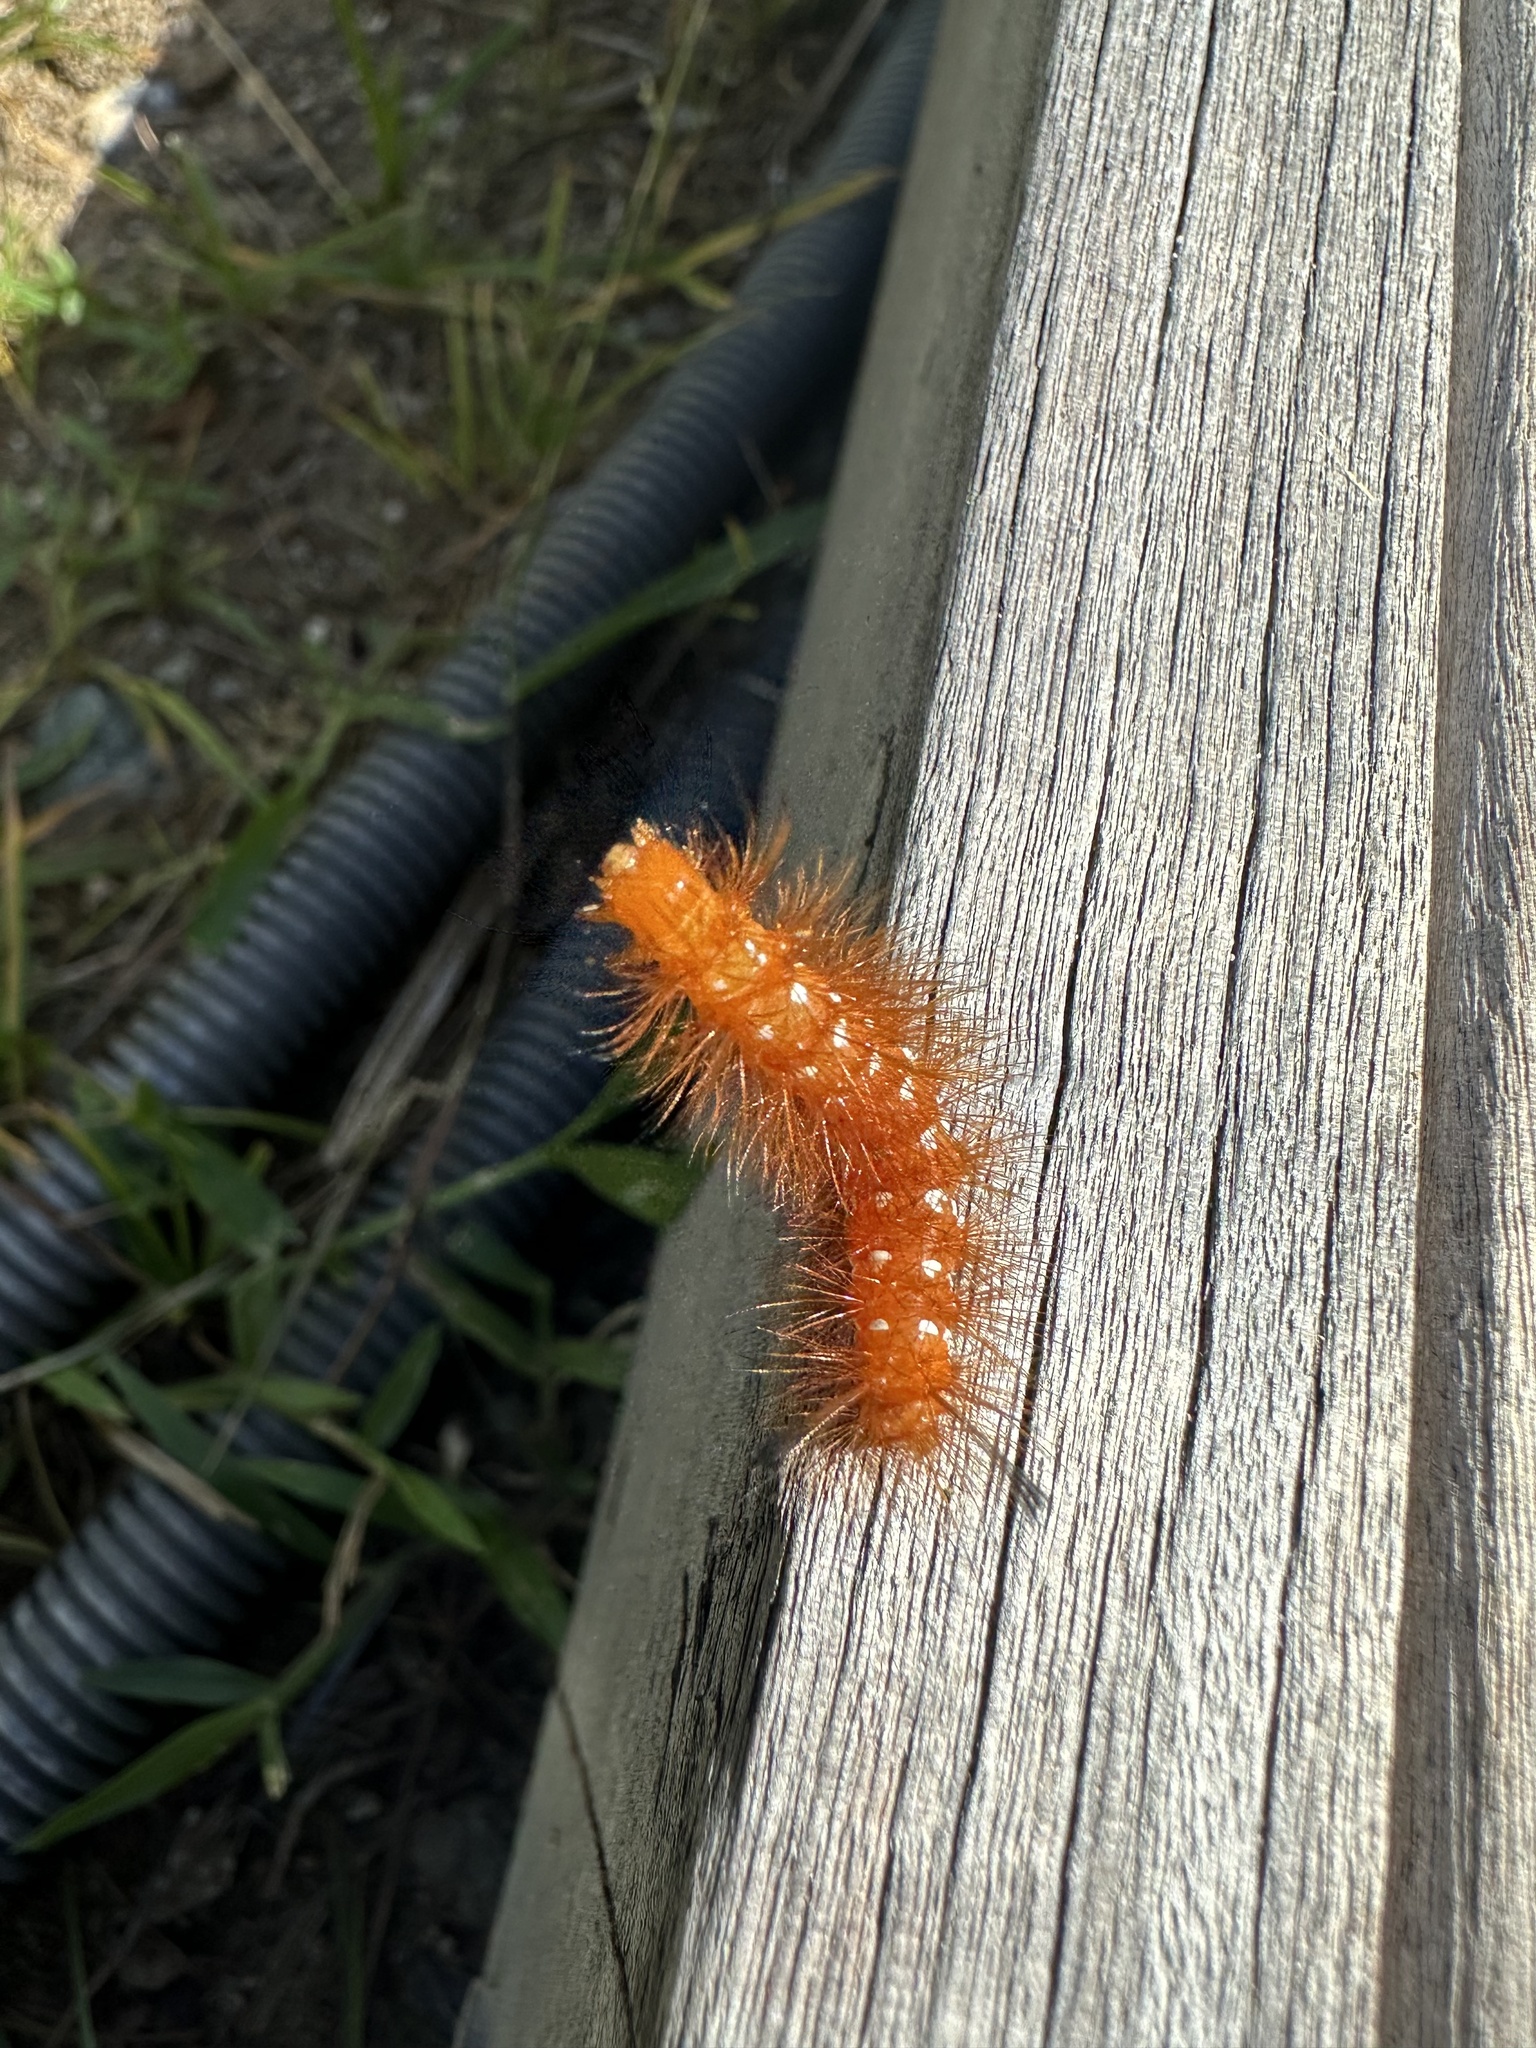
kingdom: Animalia
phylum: Arthropoda
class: Insecta
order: Lepidoptera
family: Erebidae
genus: Empyreuma
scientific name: Empyreuma pugione
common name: Spotted oleander caterpillar moth
